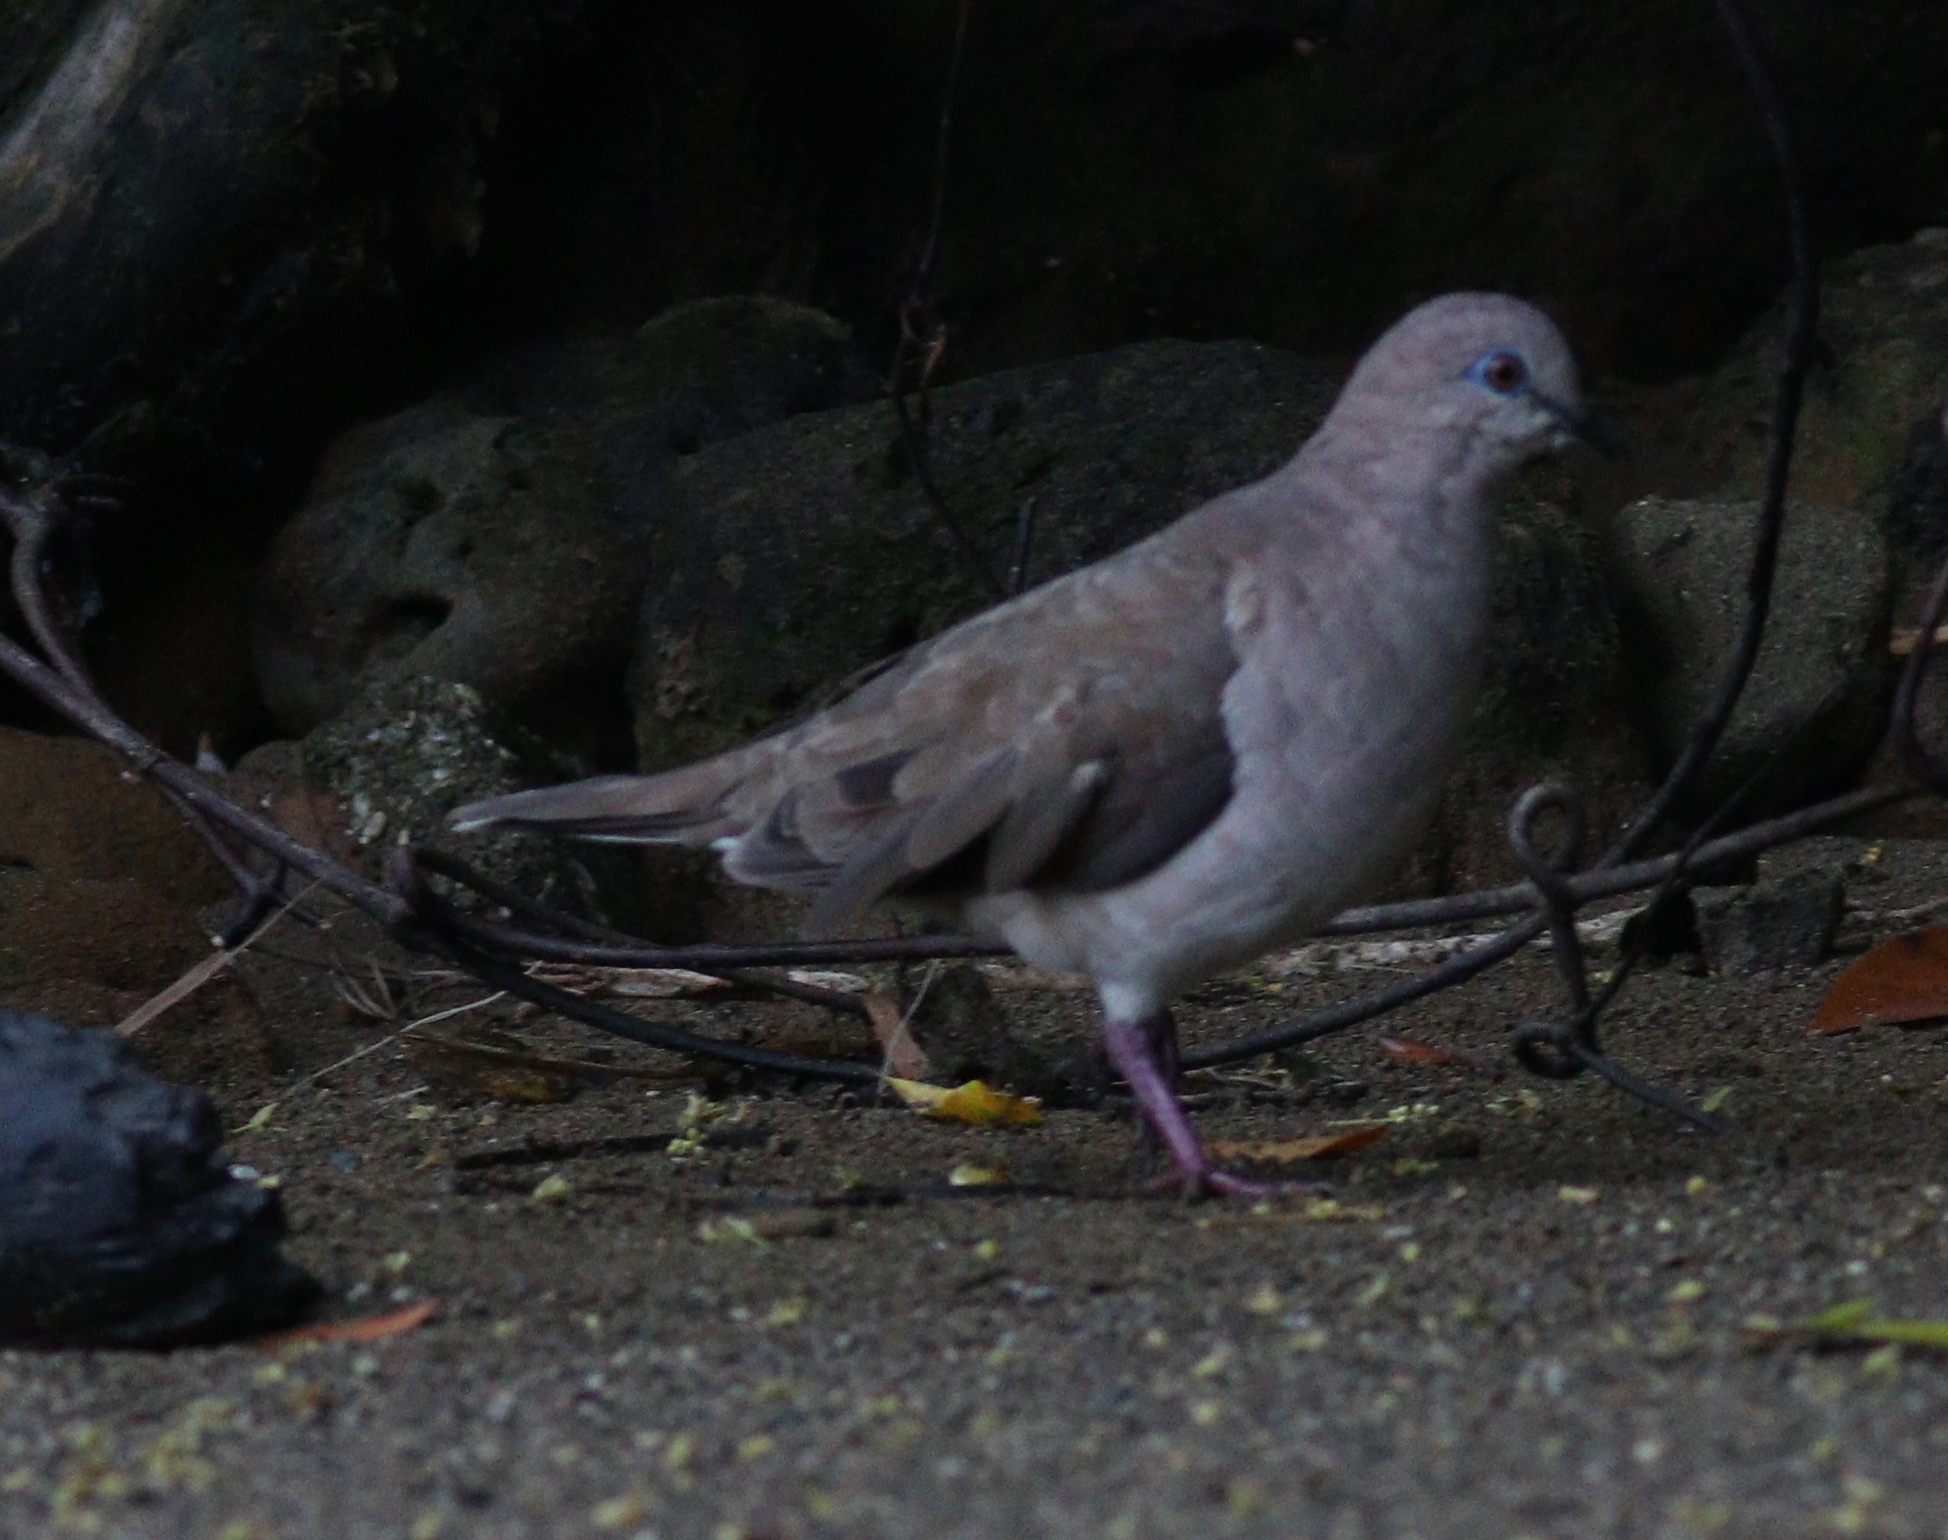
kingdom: Animalia
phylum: Chordata
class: Aves
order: Columbiformes
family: Columbidae
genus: Leptotila
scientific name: Leptotila verreauxi
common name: White-tipped dove
